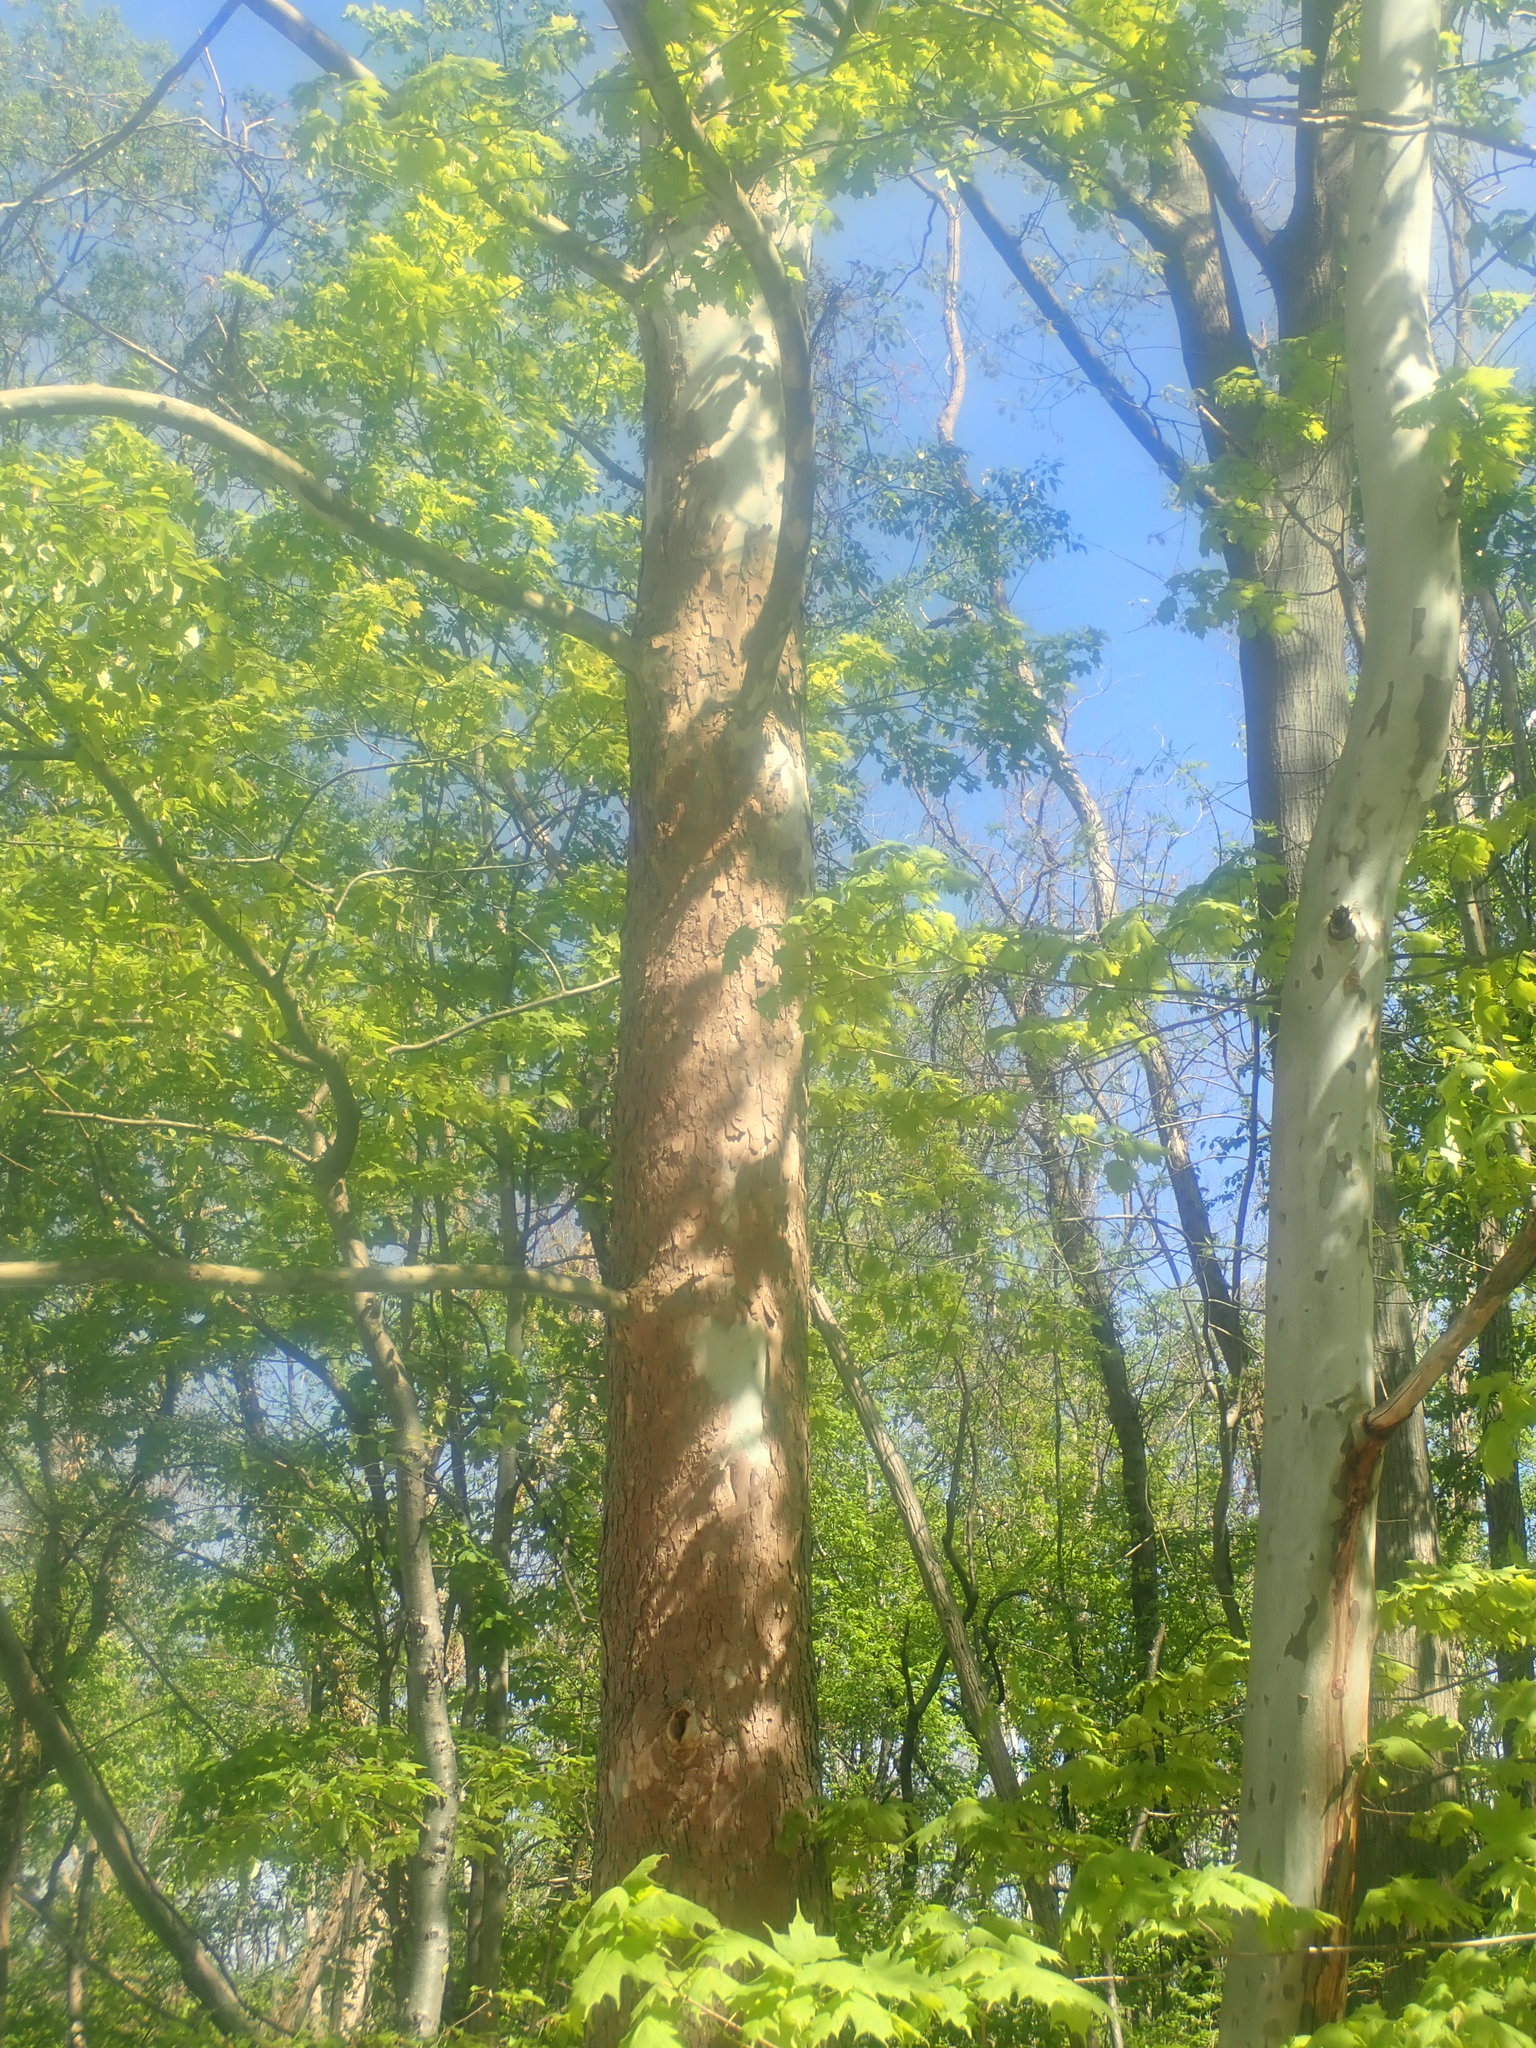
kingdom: Plantae
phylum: Tracheophyta
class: Magnoliopsida
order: Proteales
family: Platanaceae
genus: Platanus
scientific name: Platanus occidentalis
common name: American sycamore
